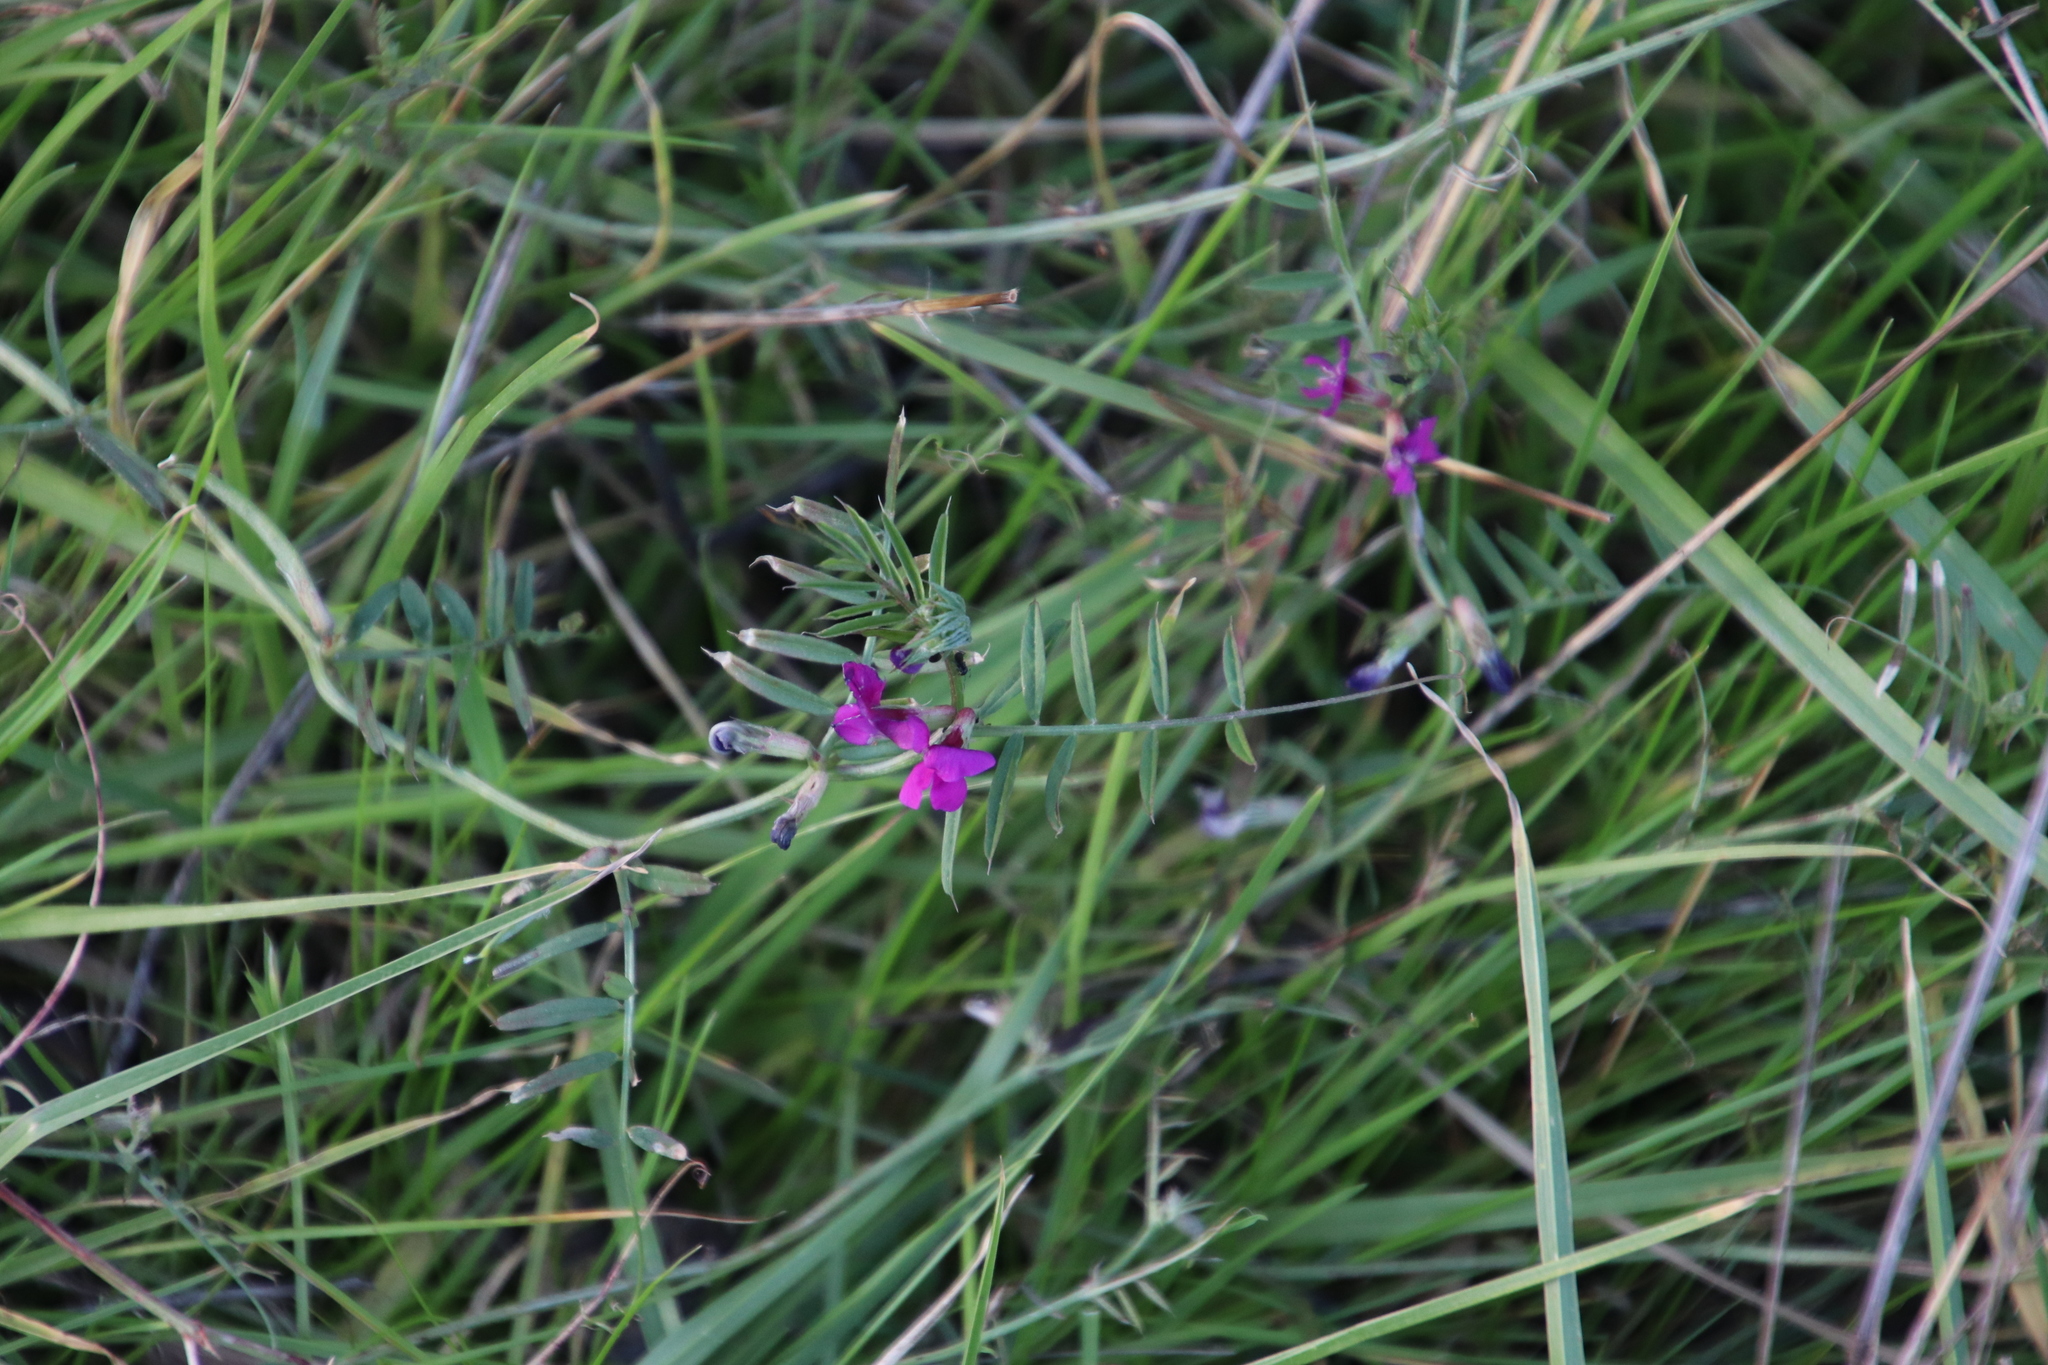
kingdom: Plantae
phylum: Tracheophyta
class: Magnoliopsida
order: Fabales
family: Fabaceae
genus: Vicia
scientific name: Vicia sativa
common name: Garden vetch
